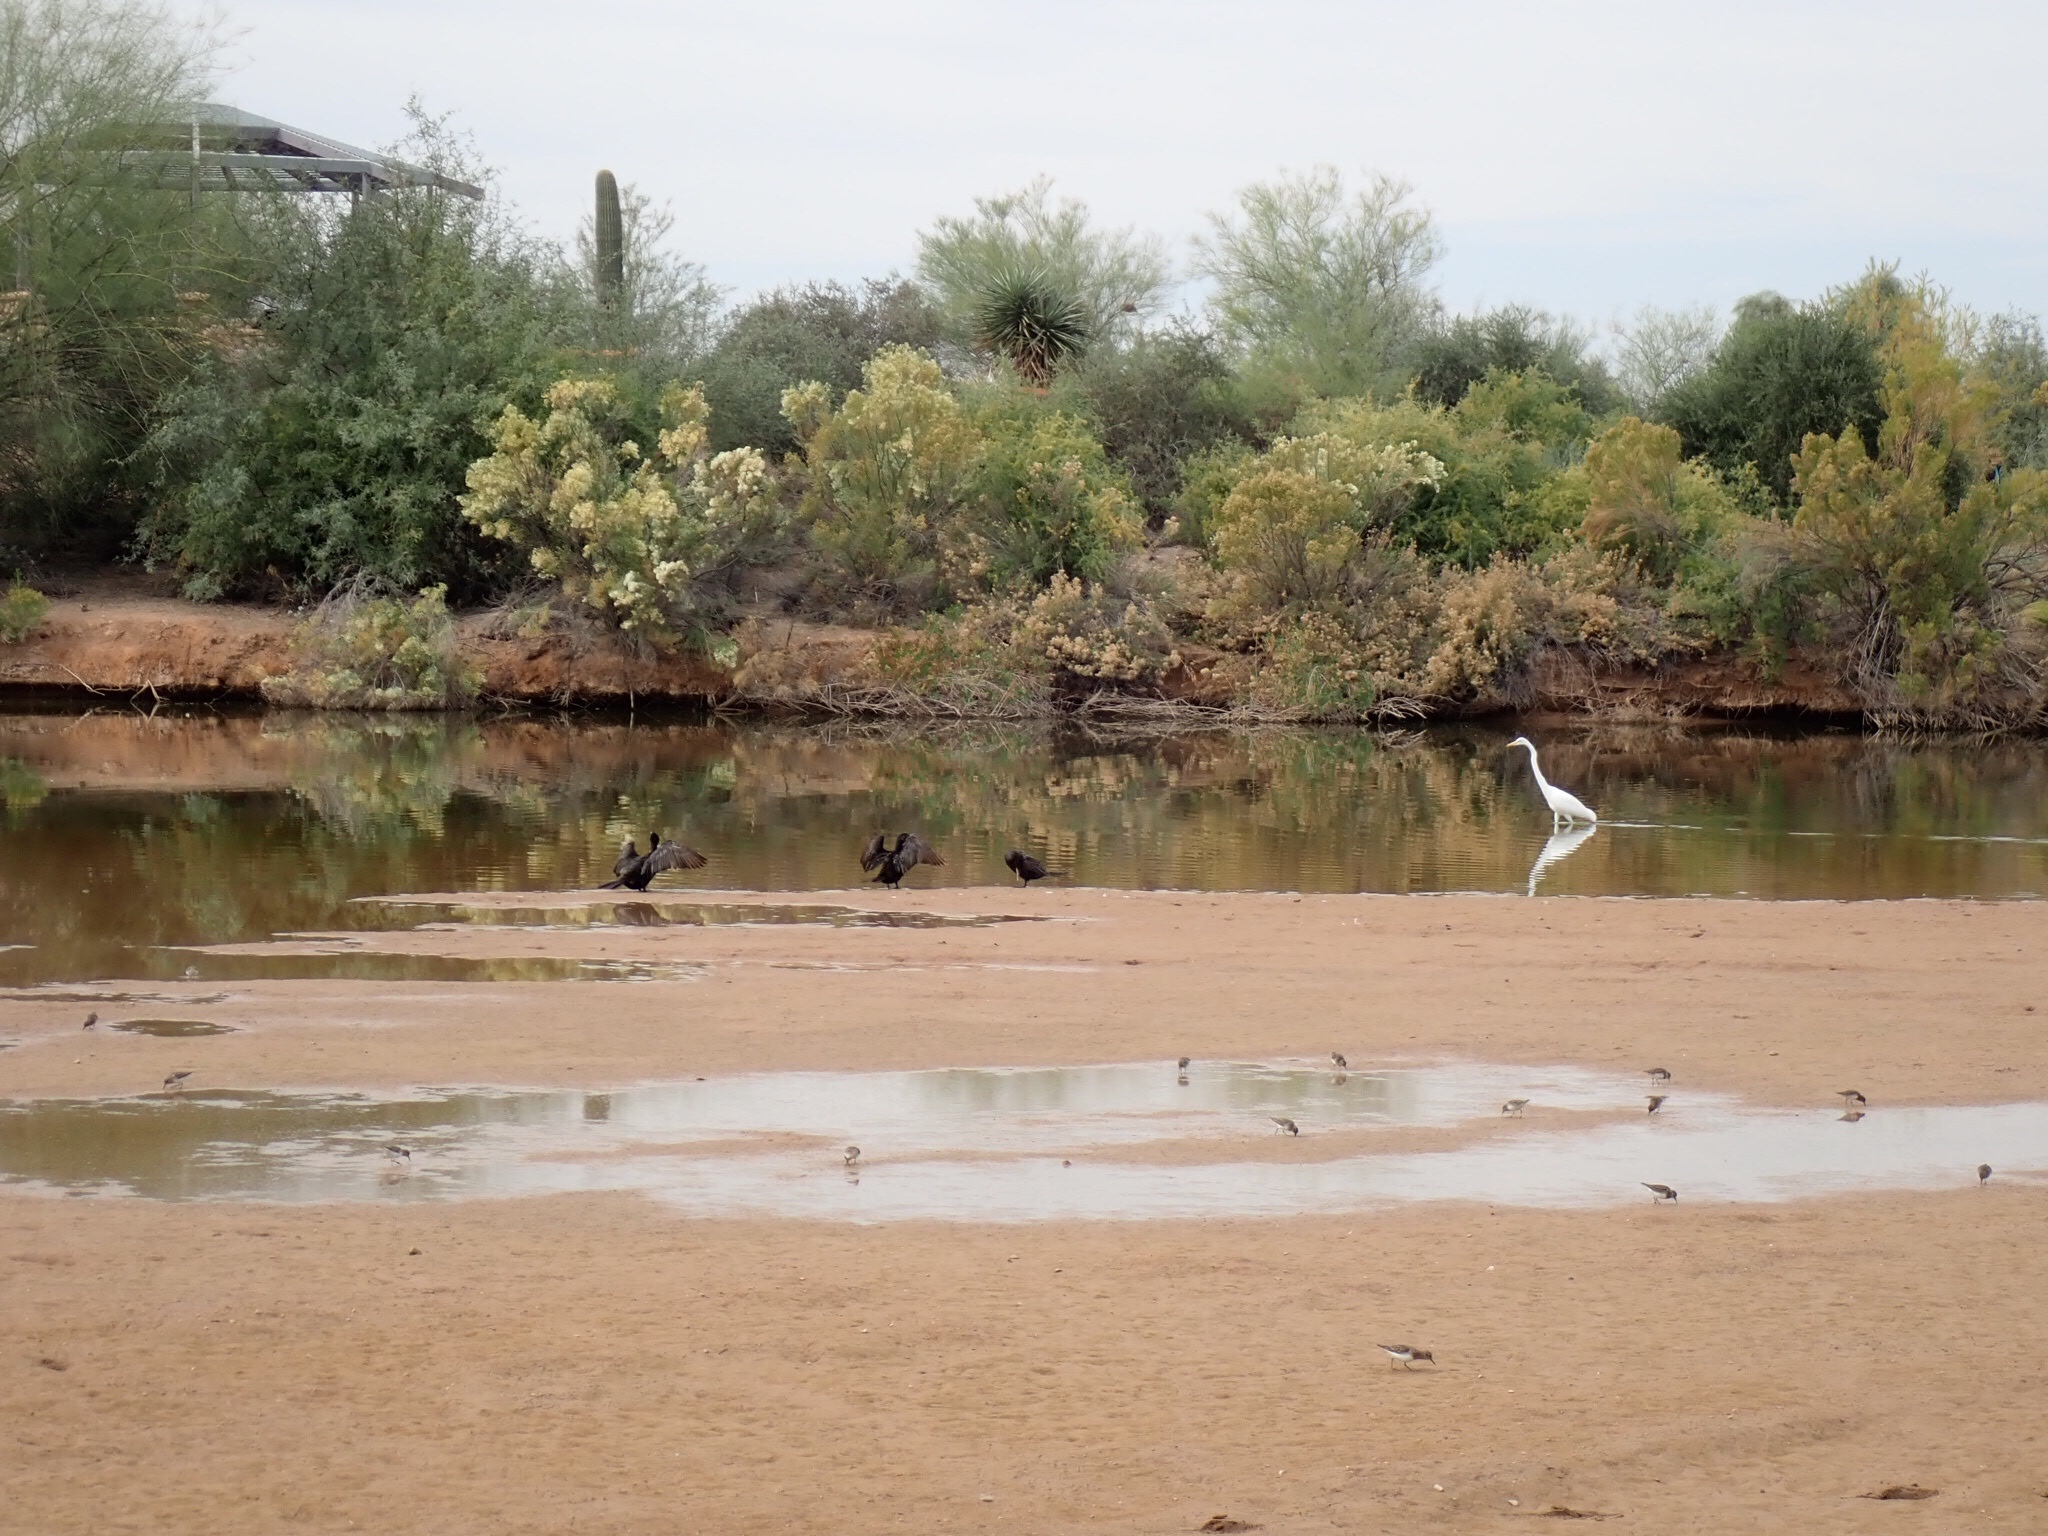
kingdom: Animalia
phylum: Chordata
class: Aves
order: Pelecaniformes
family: Ardeidae
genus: Ardea
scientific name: Ardea alba
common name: Great egret
